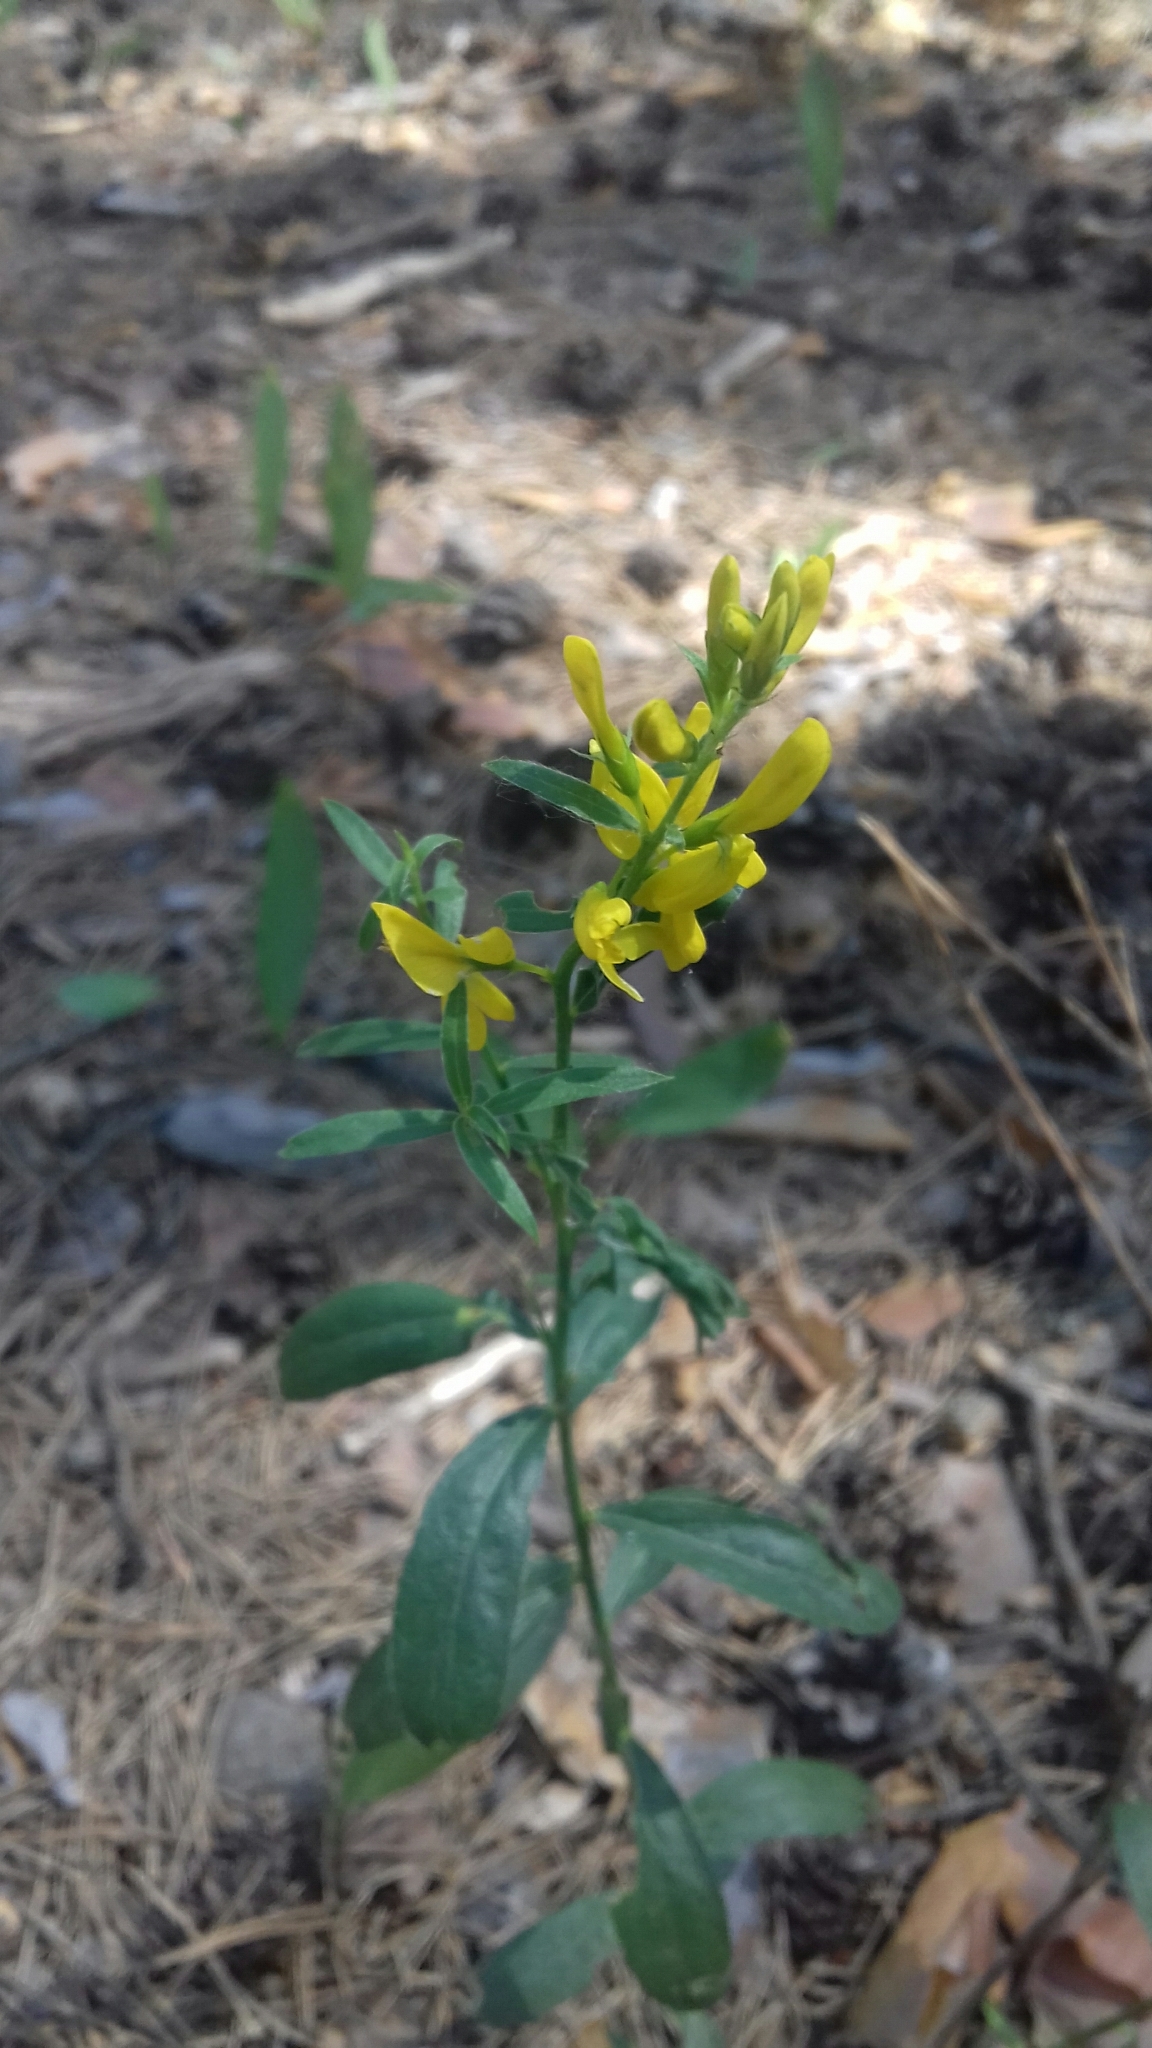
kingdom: Plantae
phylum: Tracheophyta
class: Magnoliopsida
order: Fabales
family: Fabaceae
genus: Genista
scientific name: Genista tinctoria
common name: Dyer's greenweed
